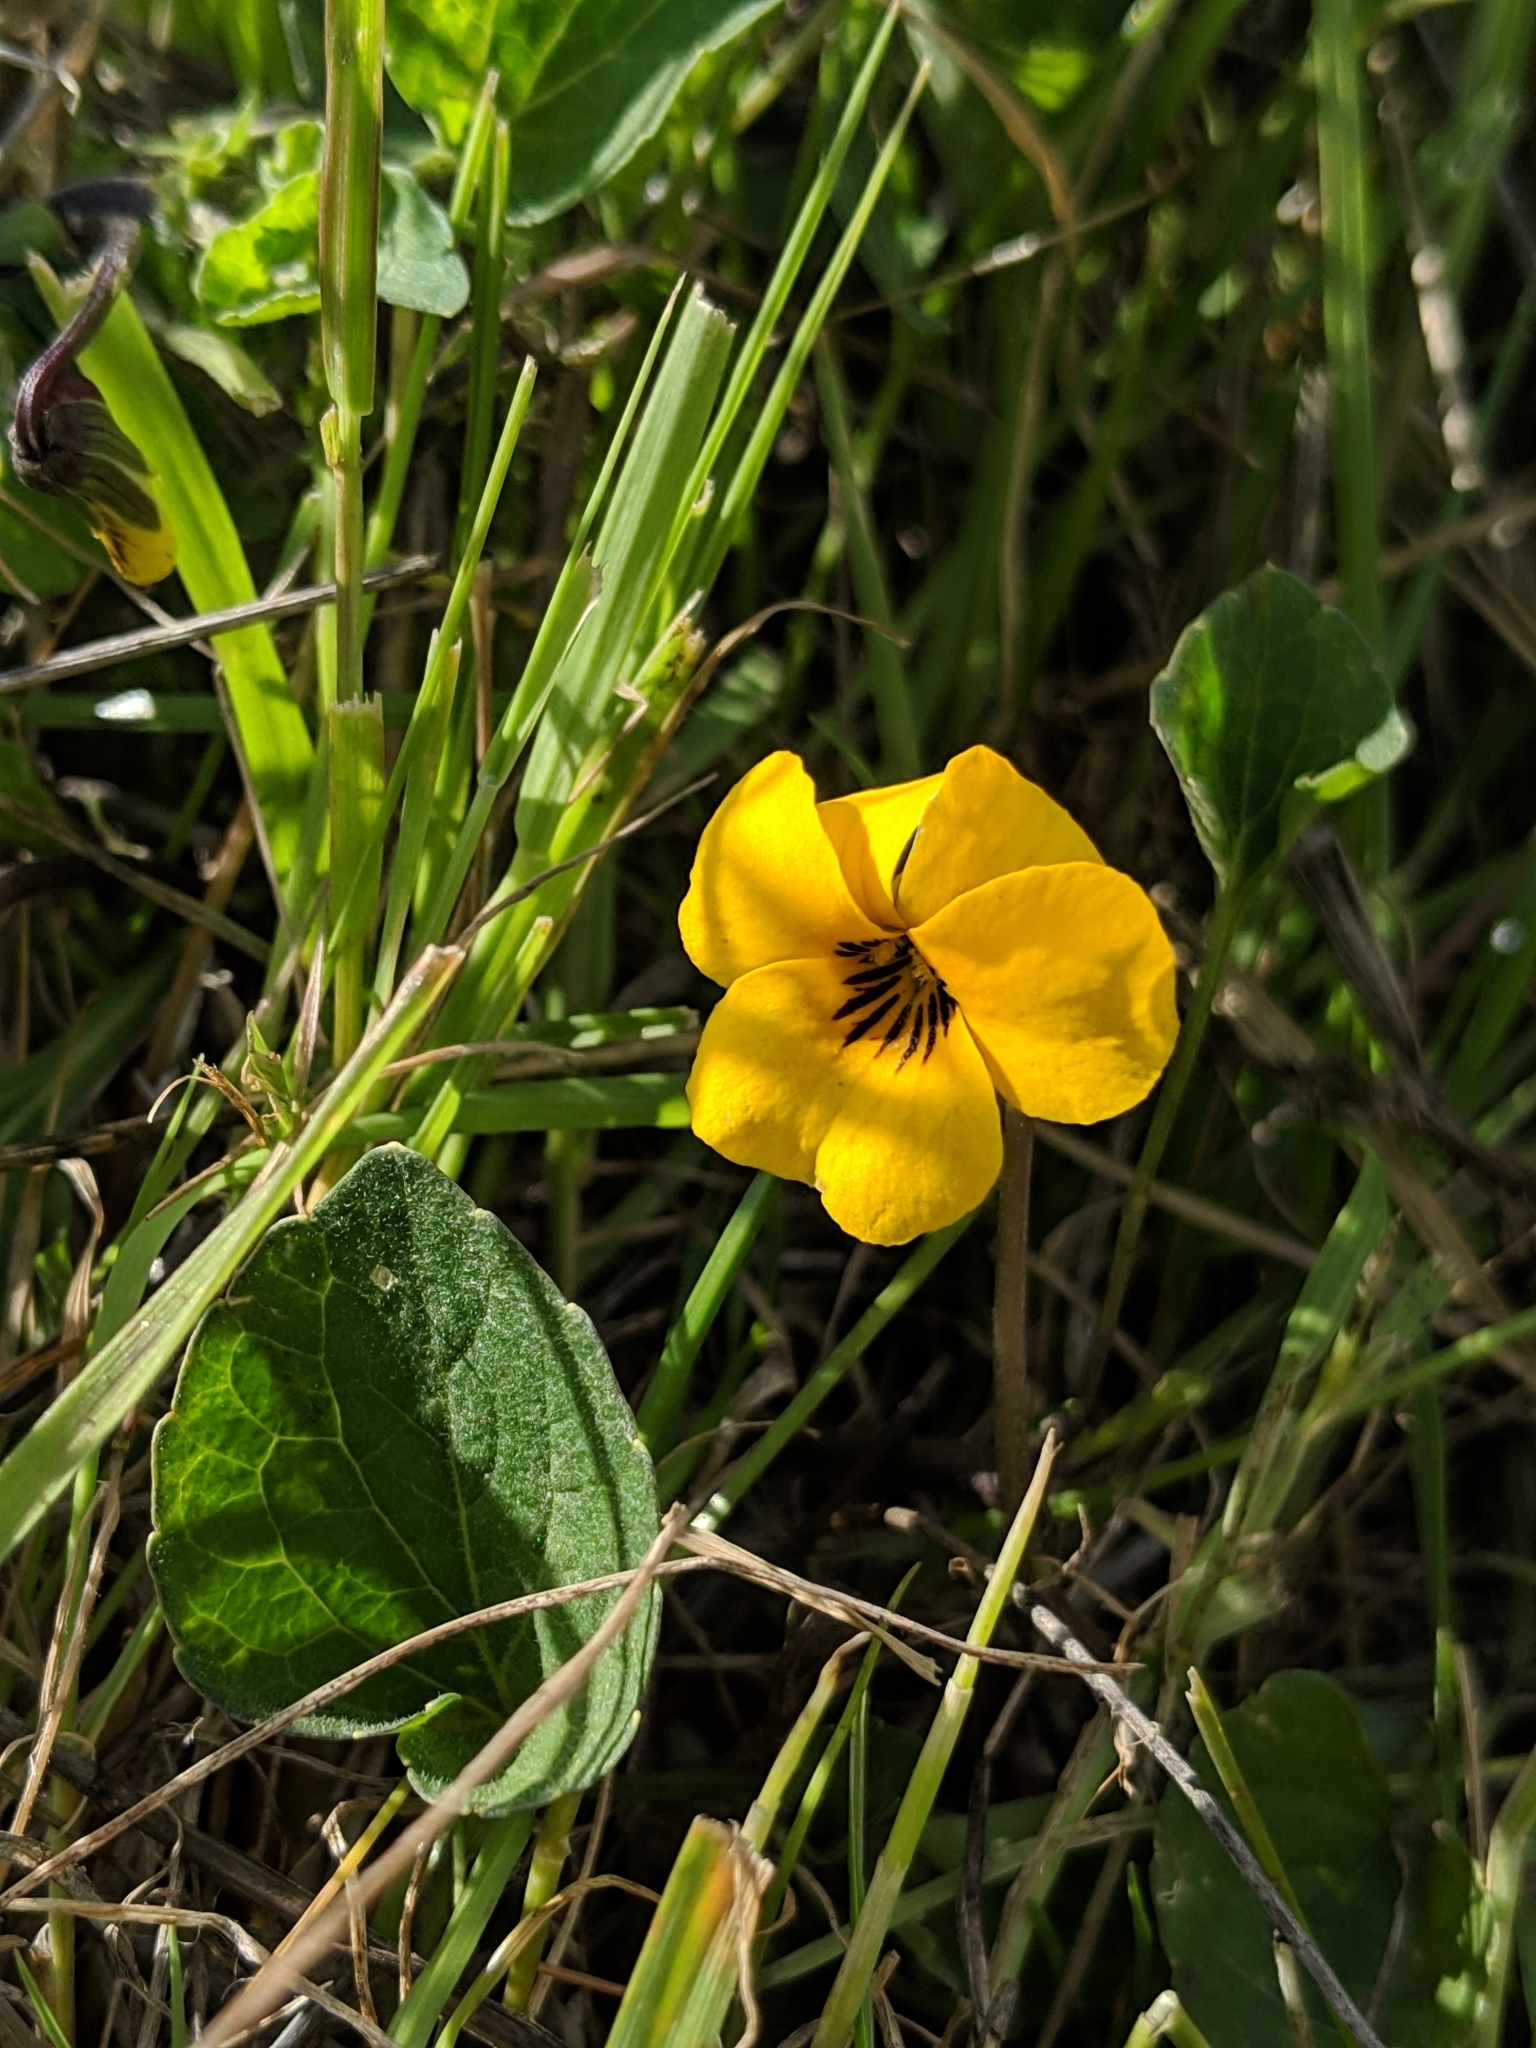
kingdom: Plantae
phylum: Tracheophyta
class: Magnoliopsida
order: Malpighiales
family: Violaceae
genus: Viola
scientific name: Viola pedunculata
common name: California golden violet
